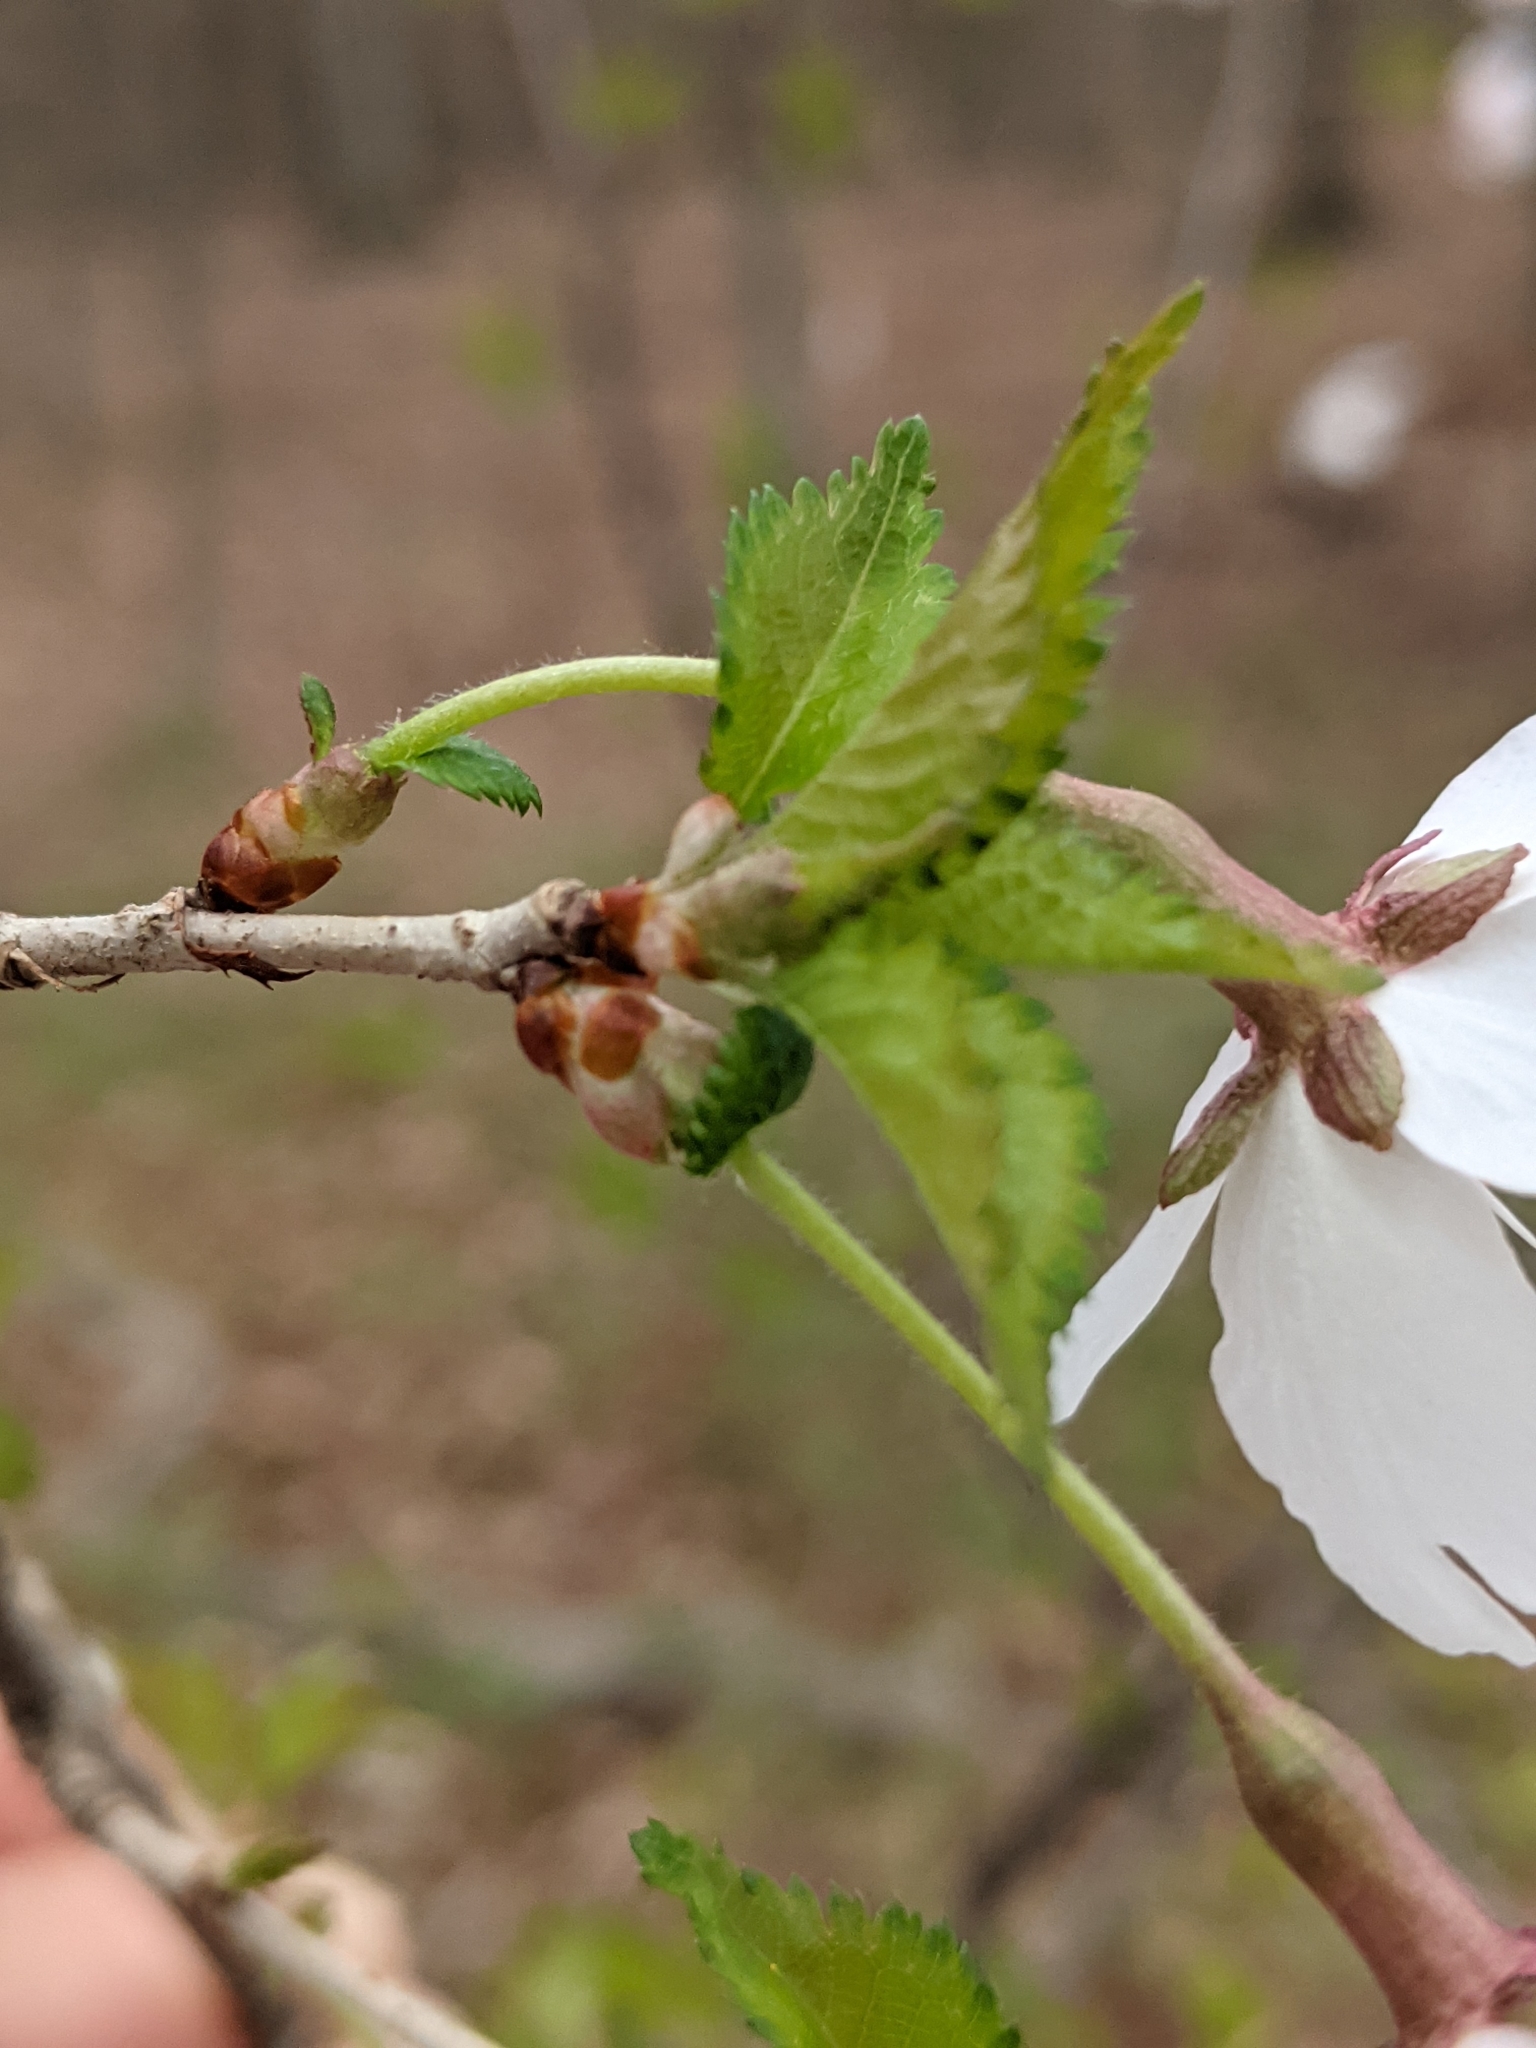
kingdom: Plantae
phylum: Tracheophyta
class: Magnoliopsida
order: Rosales
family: Rosaceae
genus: Prunus
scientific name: Prunus incisa
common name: Fuji cherry
